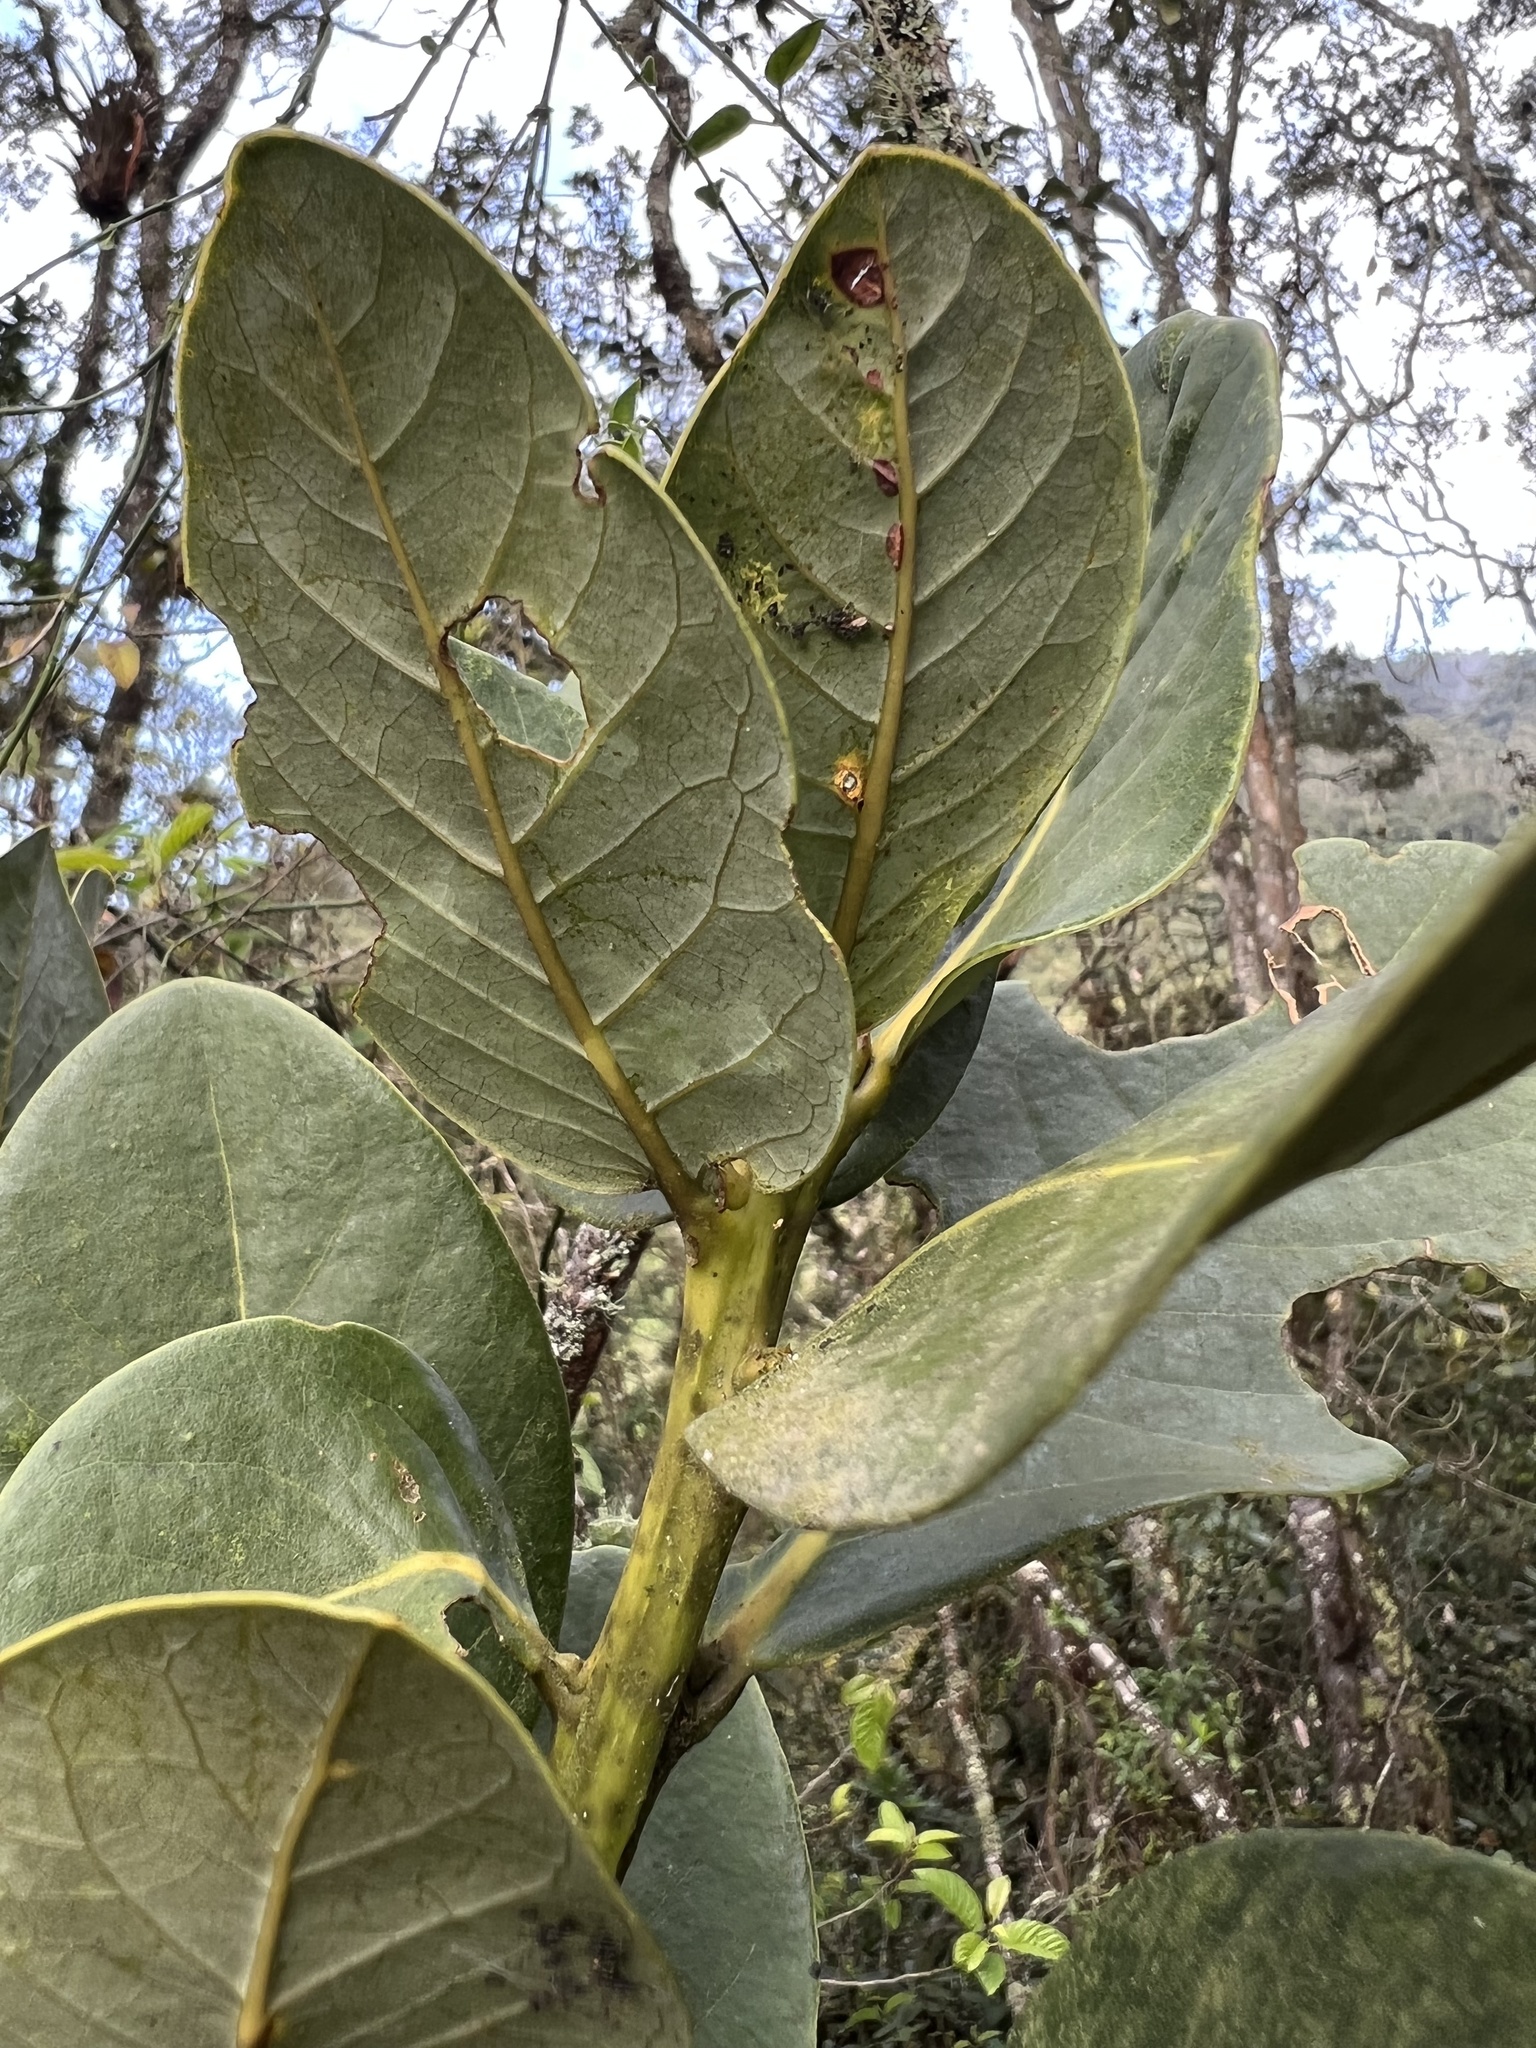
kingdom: Plantae
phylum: Tracheophyta
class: Magnoliopsida
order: Laurales
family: Lauraceae
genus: Persea
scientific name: Persea mutisii
